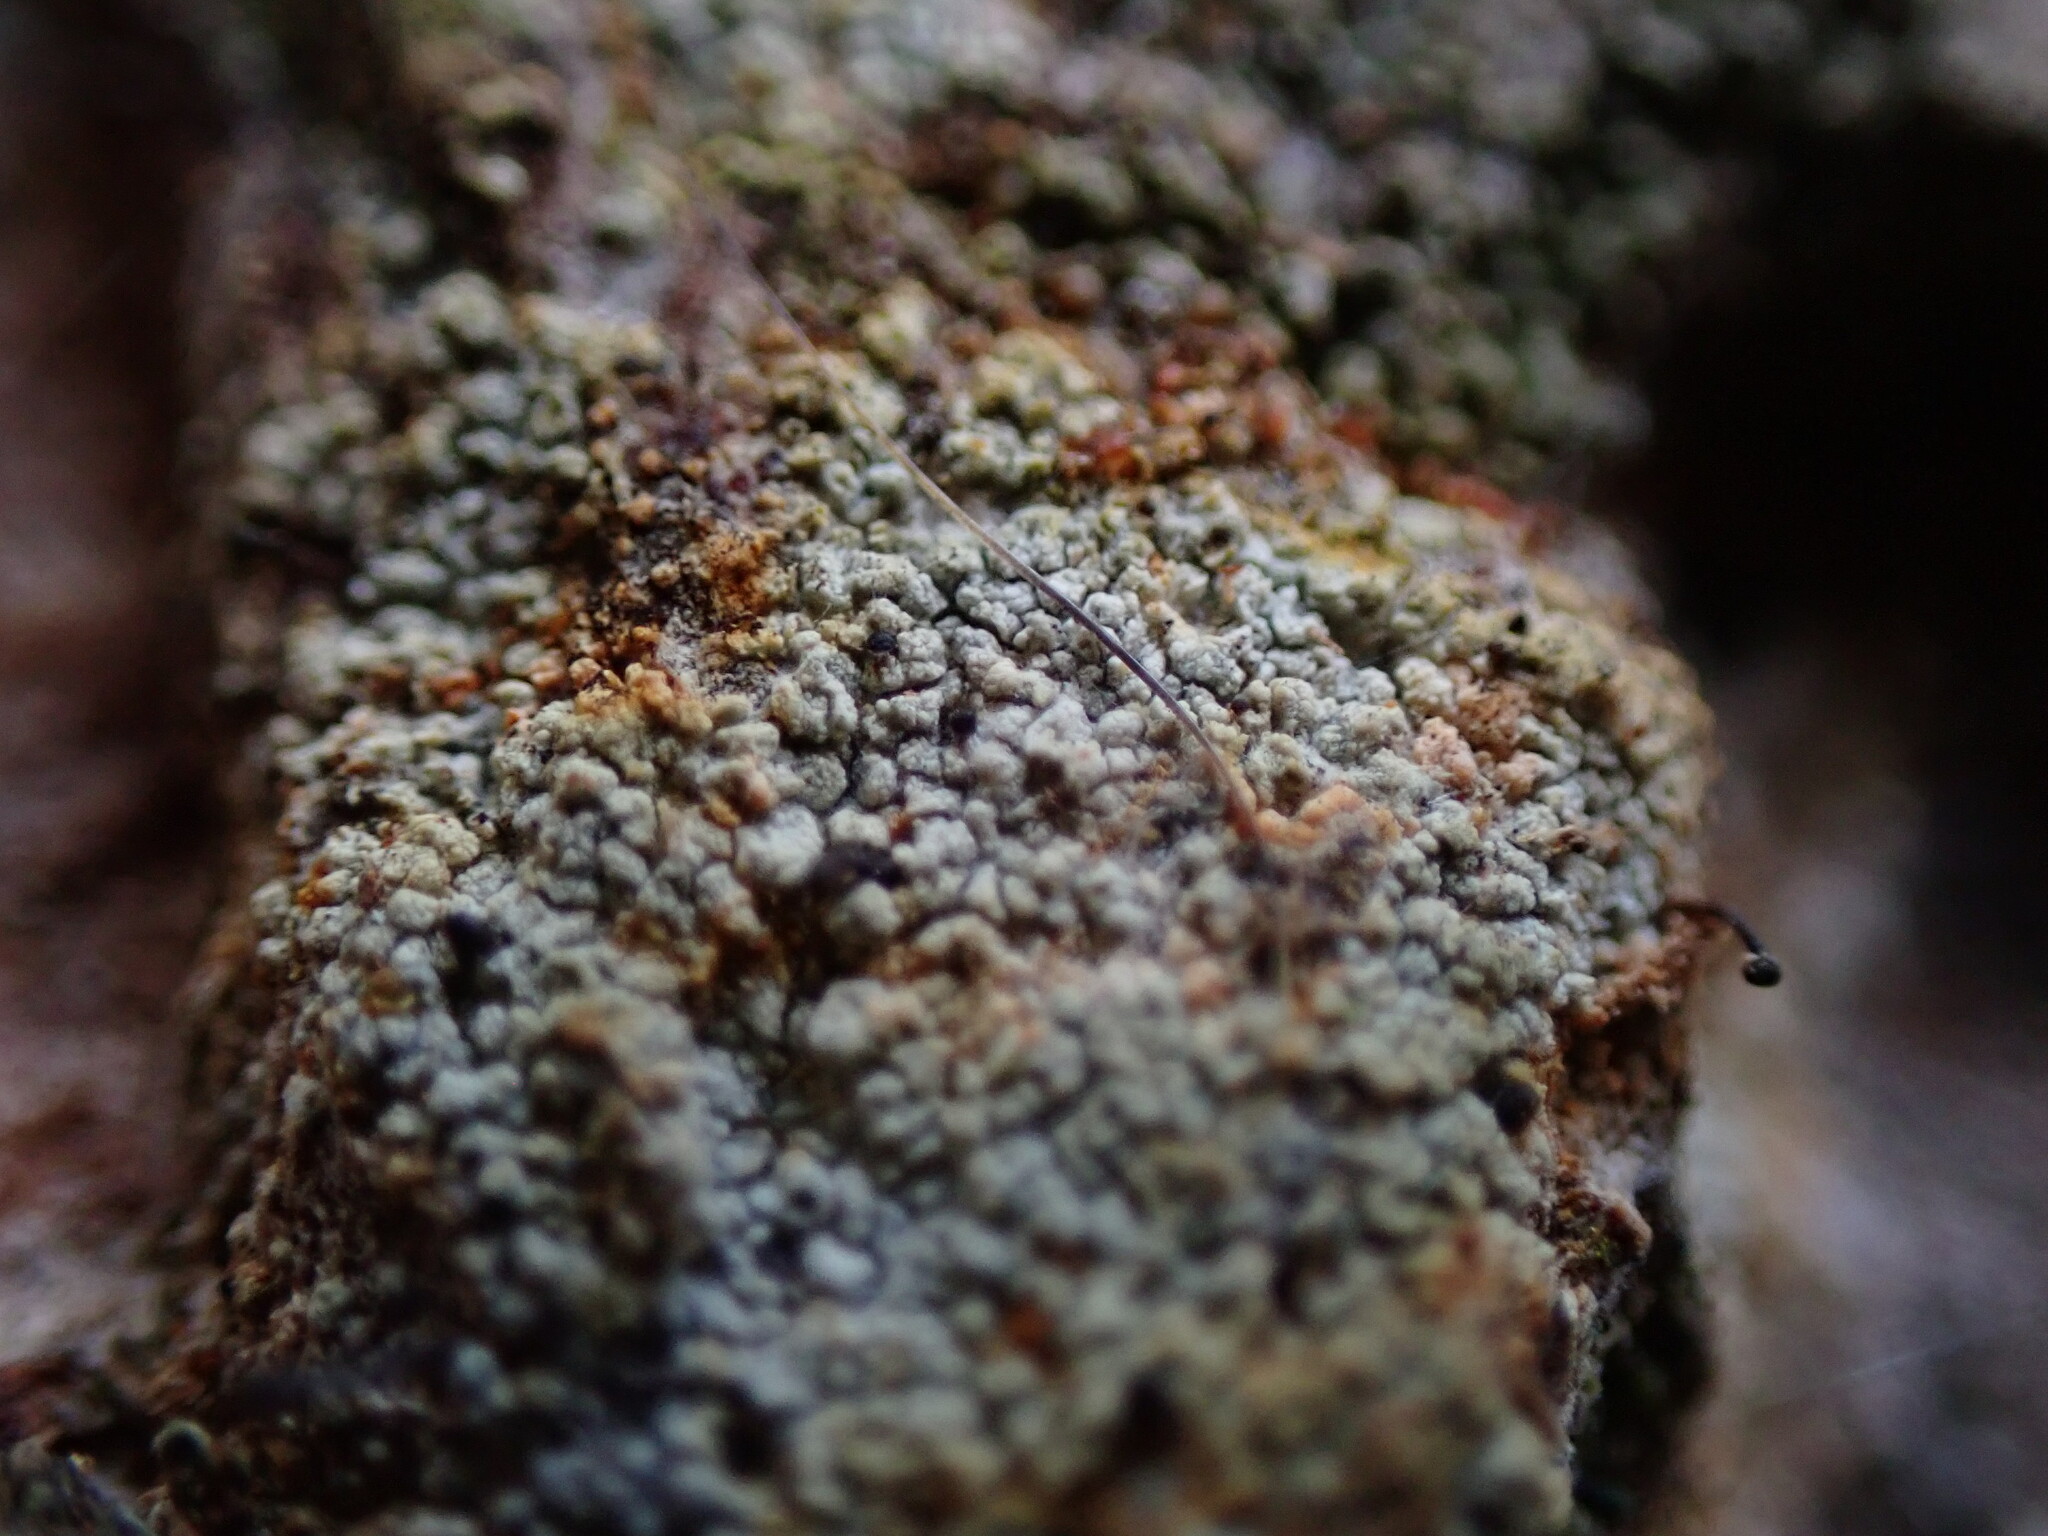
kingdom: Fungi
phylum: Ascomycota
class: Coniocybomycetes
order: Coniocybales
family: Coniocybaceae
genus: Chaenotheca
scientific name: Chaenotheca ferruginea
